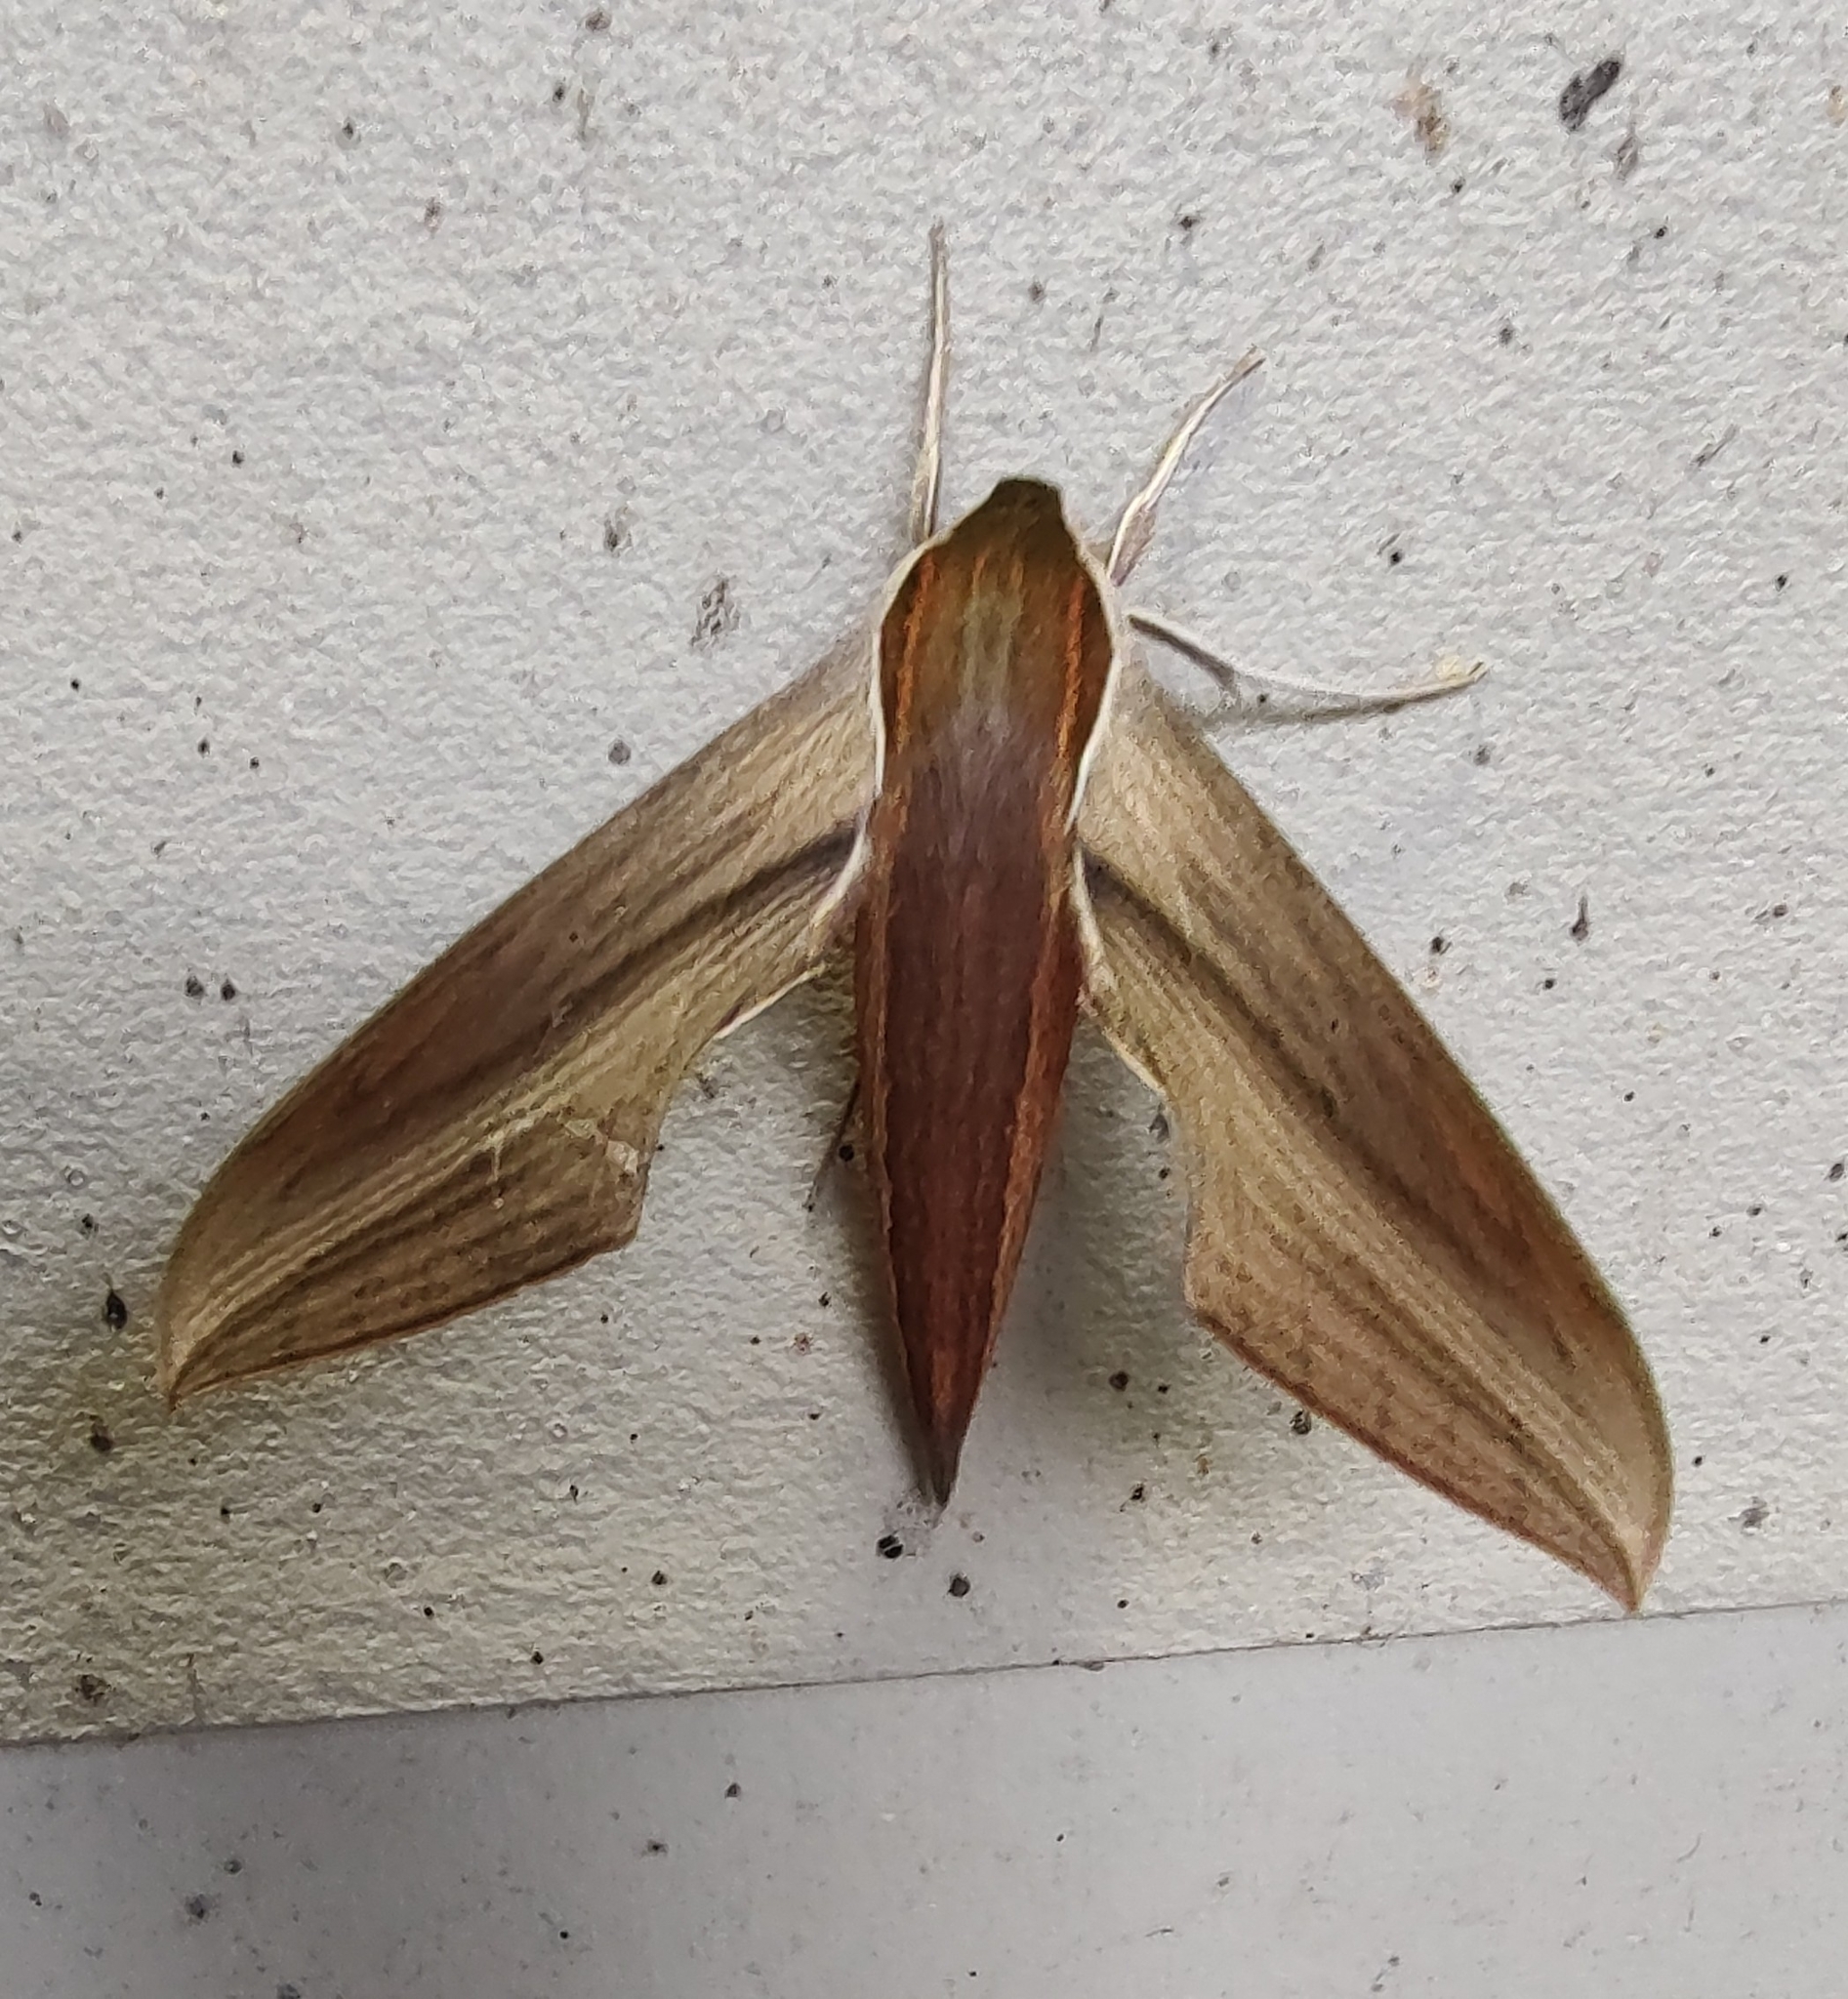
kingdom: Animalia
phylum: Arthropoda
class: Insecta
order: Lepidoptera
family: Sphingidae
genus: Xylophanes
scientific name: Xylophanes tersa
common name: Tersa sphinx
